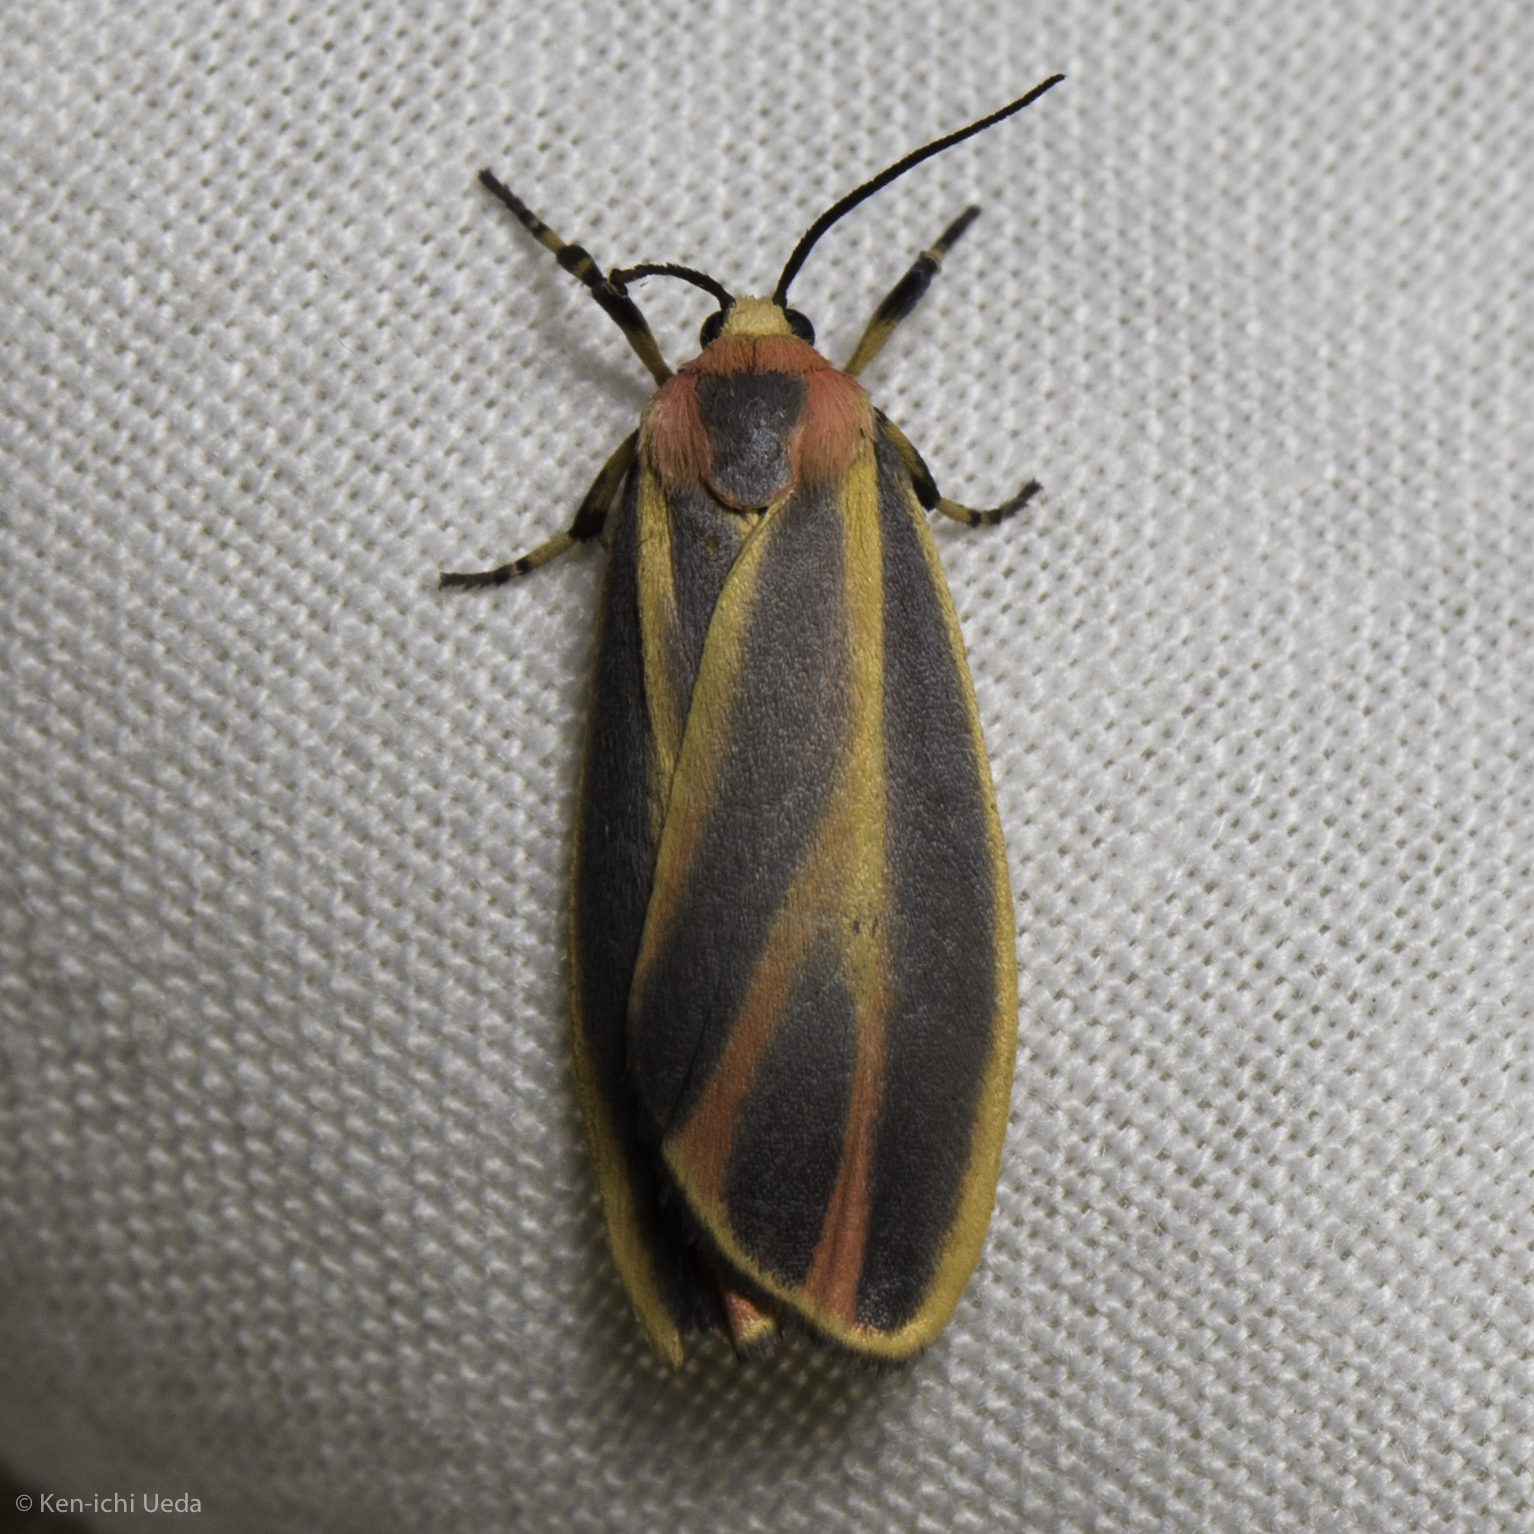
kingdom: Animalia
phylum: Arthropoda
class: Insecta
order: Lepidoptera
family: Erebidae
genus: Hypoprepia
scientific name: Hypoprepia fucosa
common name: Painted lichen moth
